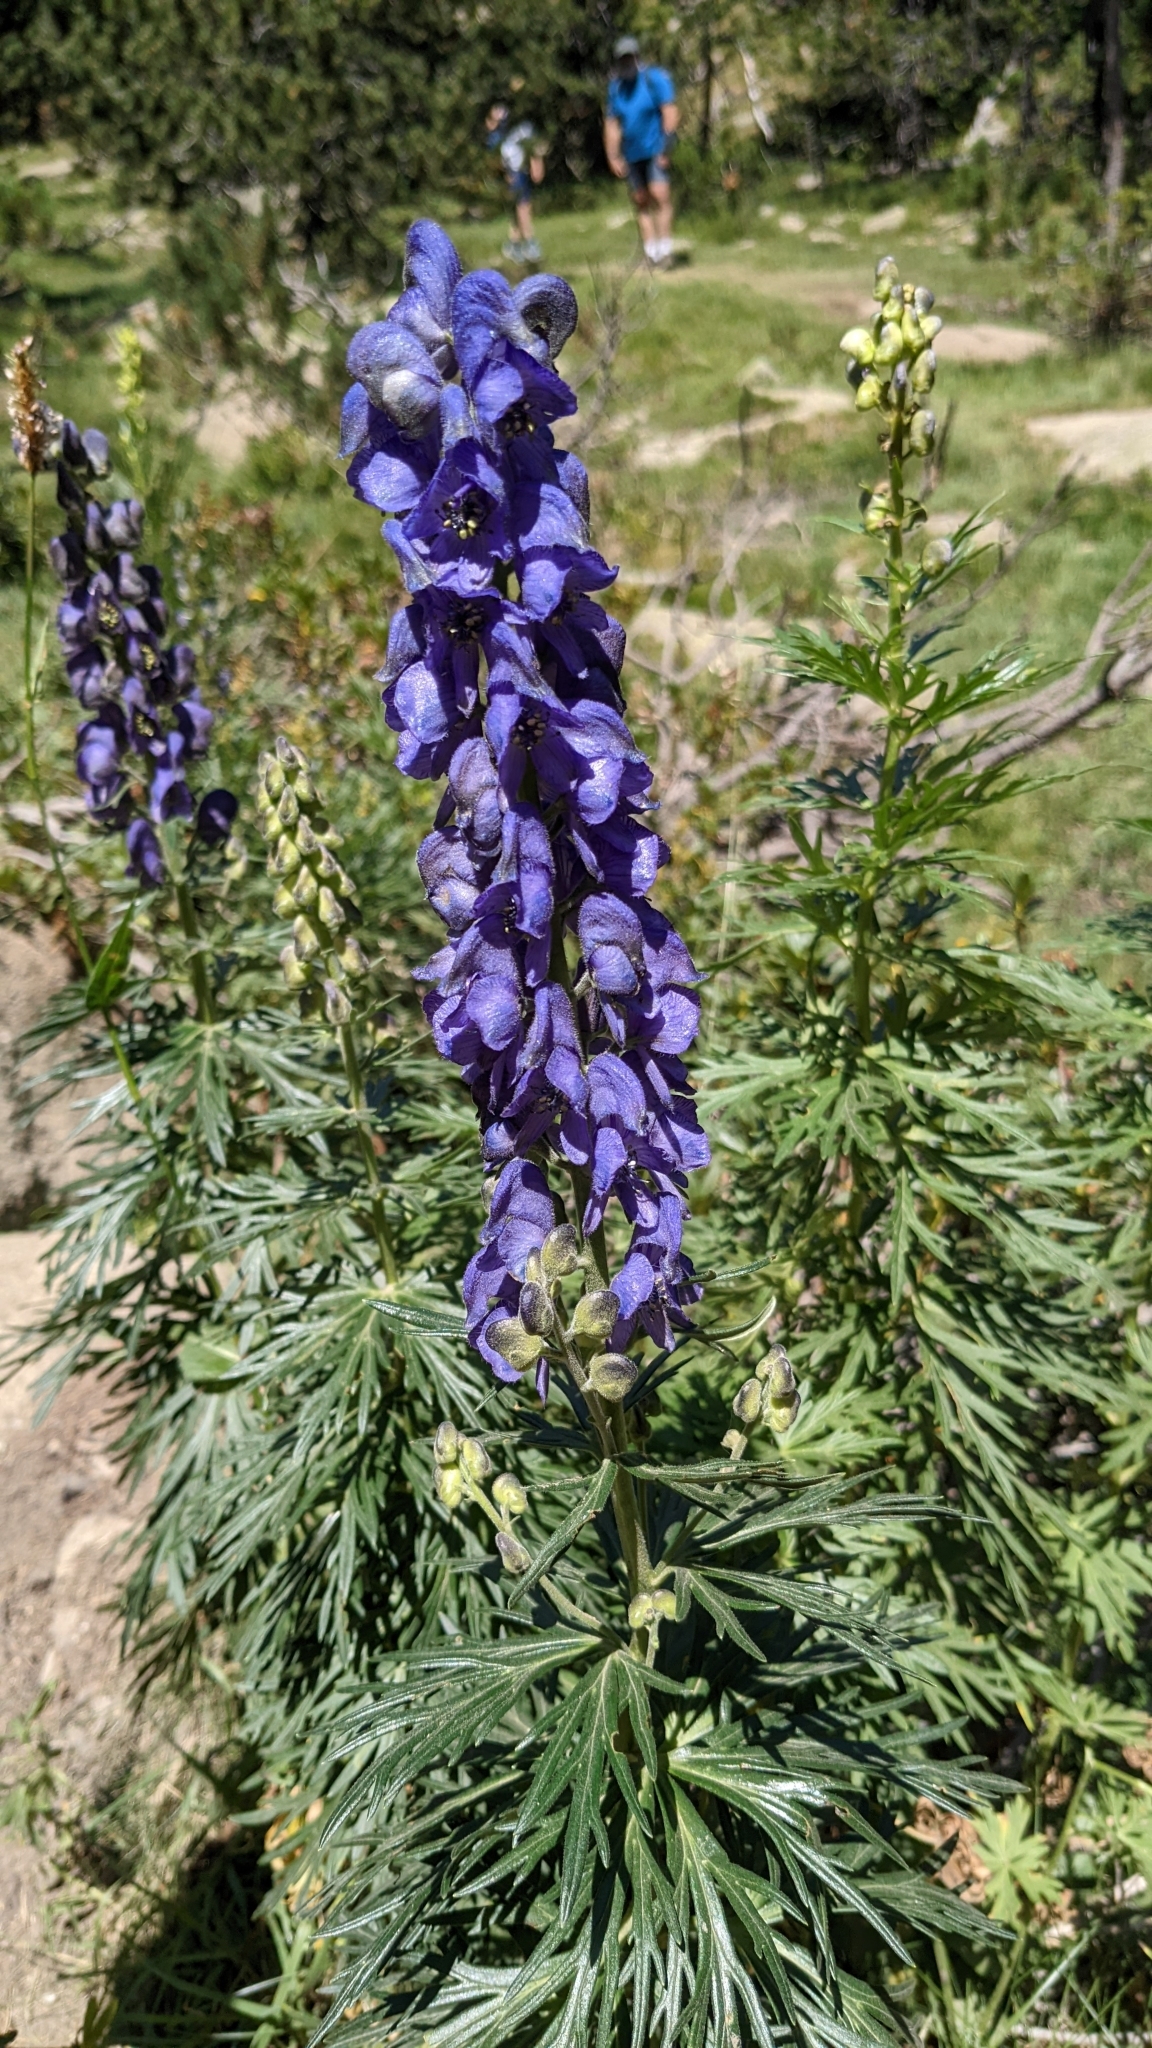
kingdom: Plantae
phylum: Tracheophyta
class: Magnoliopsida
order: Ranunculales
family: Ranunculaceae
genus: Aconitum
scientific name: Aconitum napellus
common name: Garden monkshood
